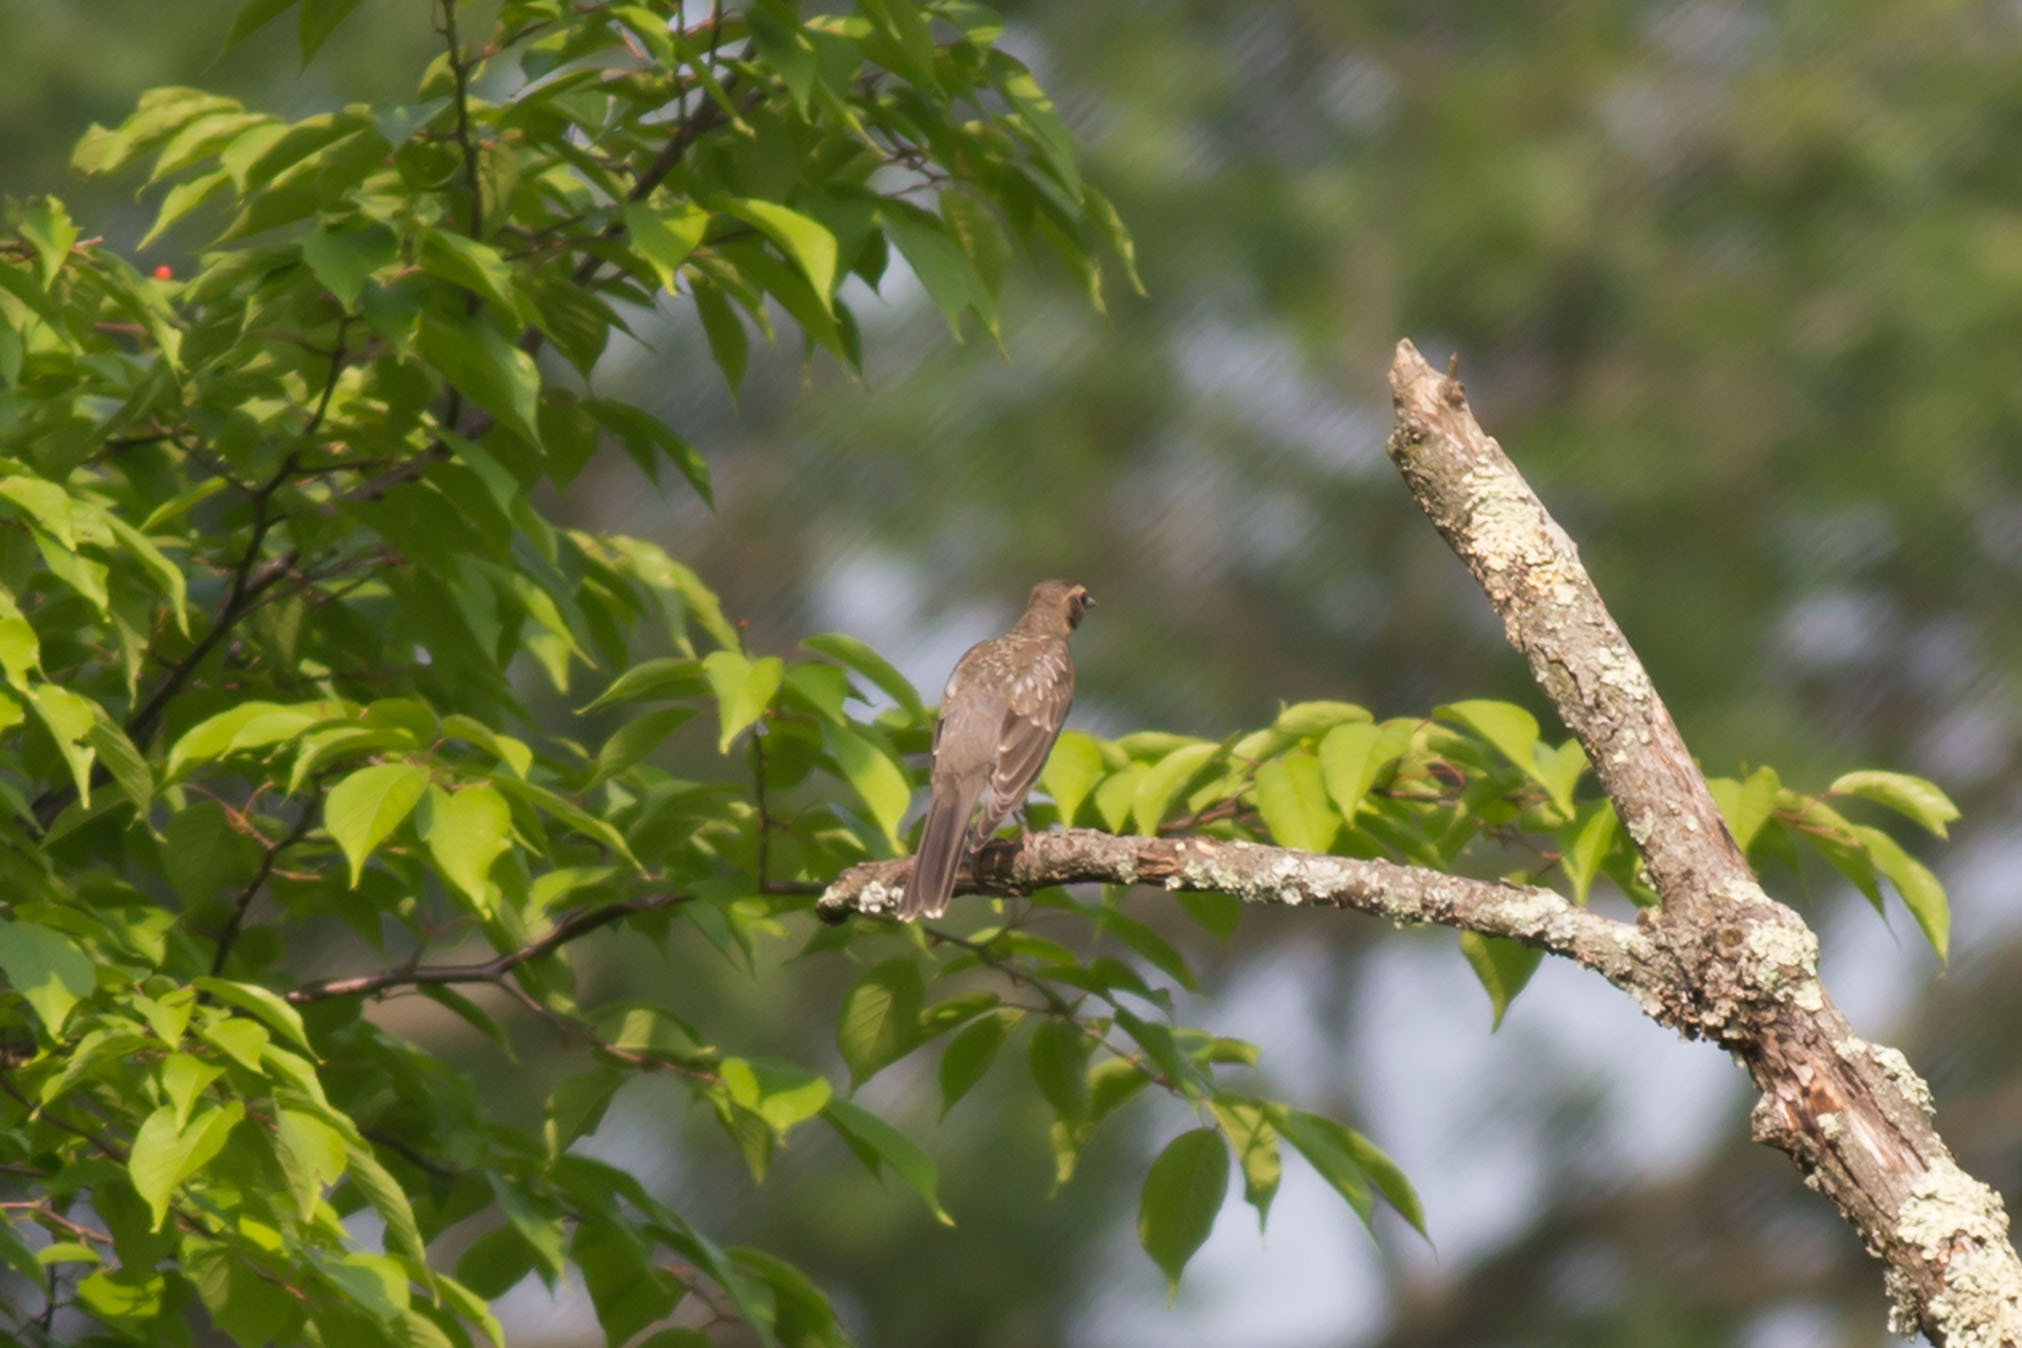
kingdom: Animalia
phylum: Chordata
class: Aves
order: Passeriformes
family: Turdidae
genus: Turdus
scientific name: Turdus migratorius
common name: American robin
